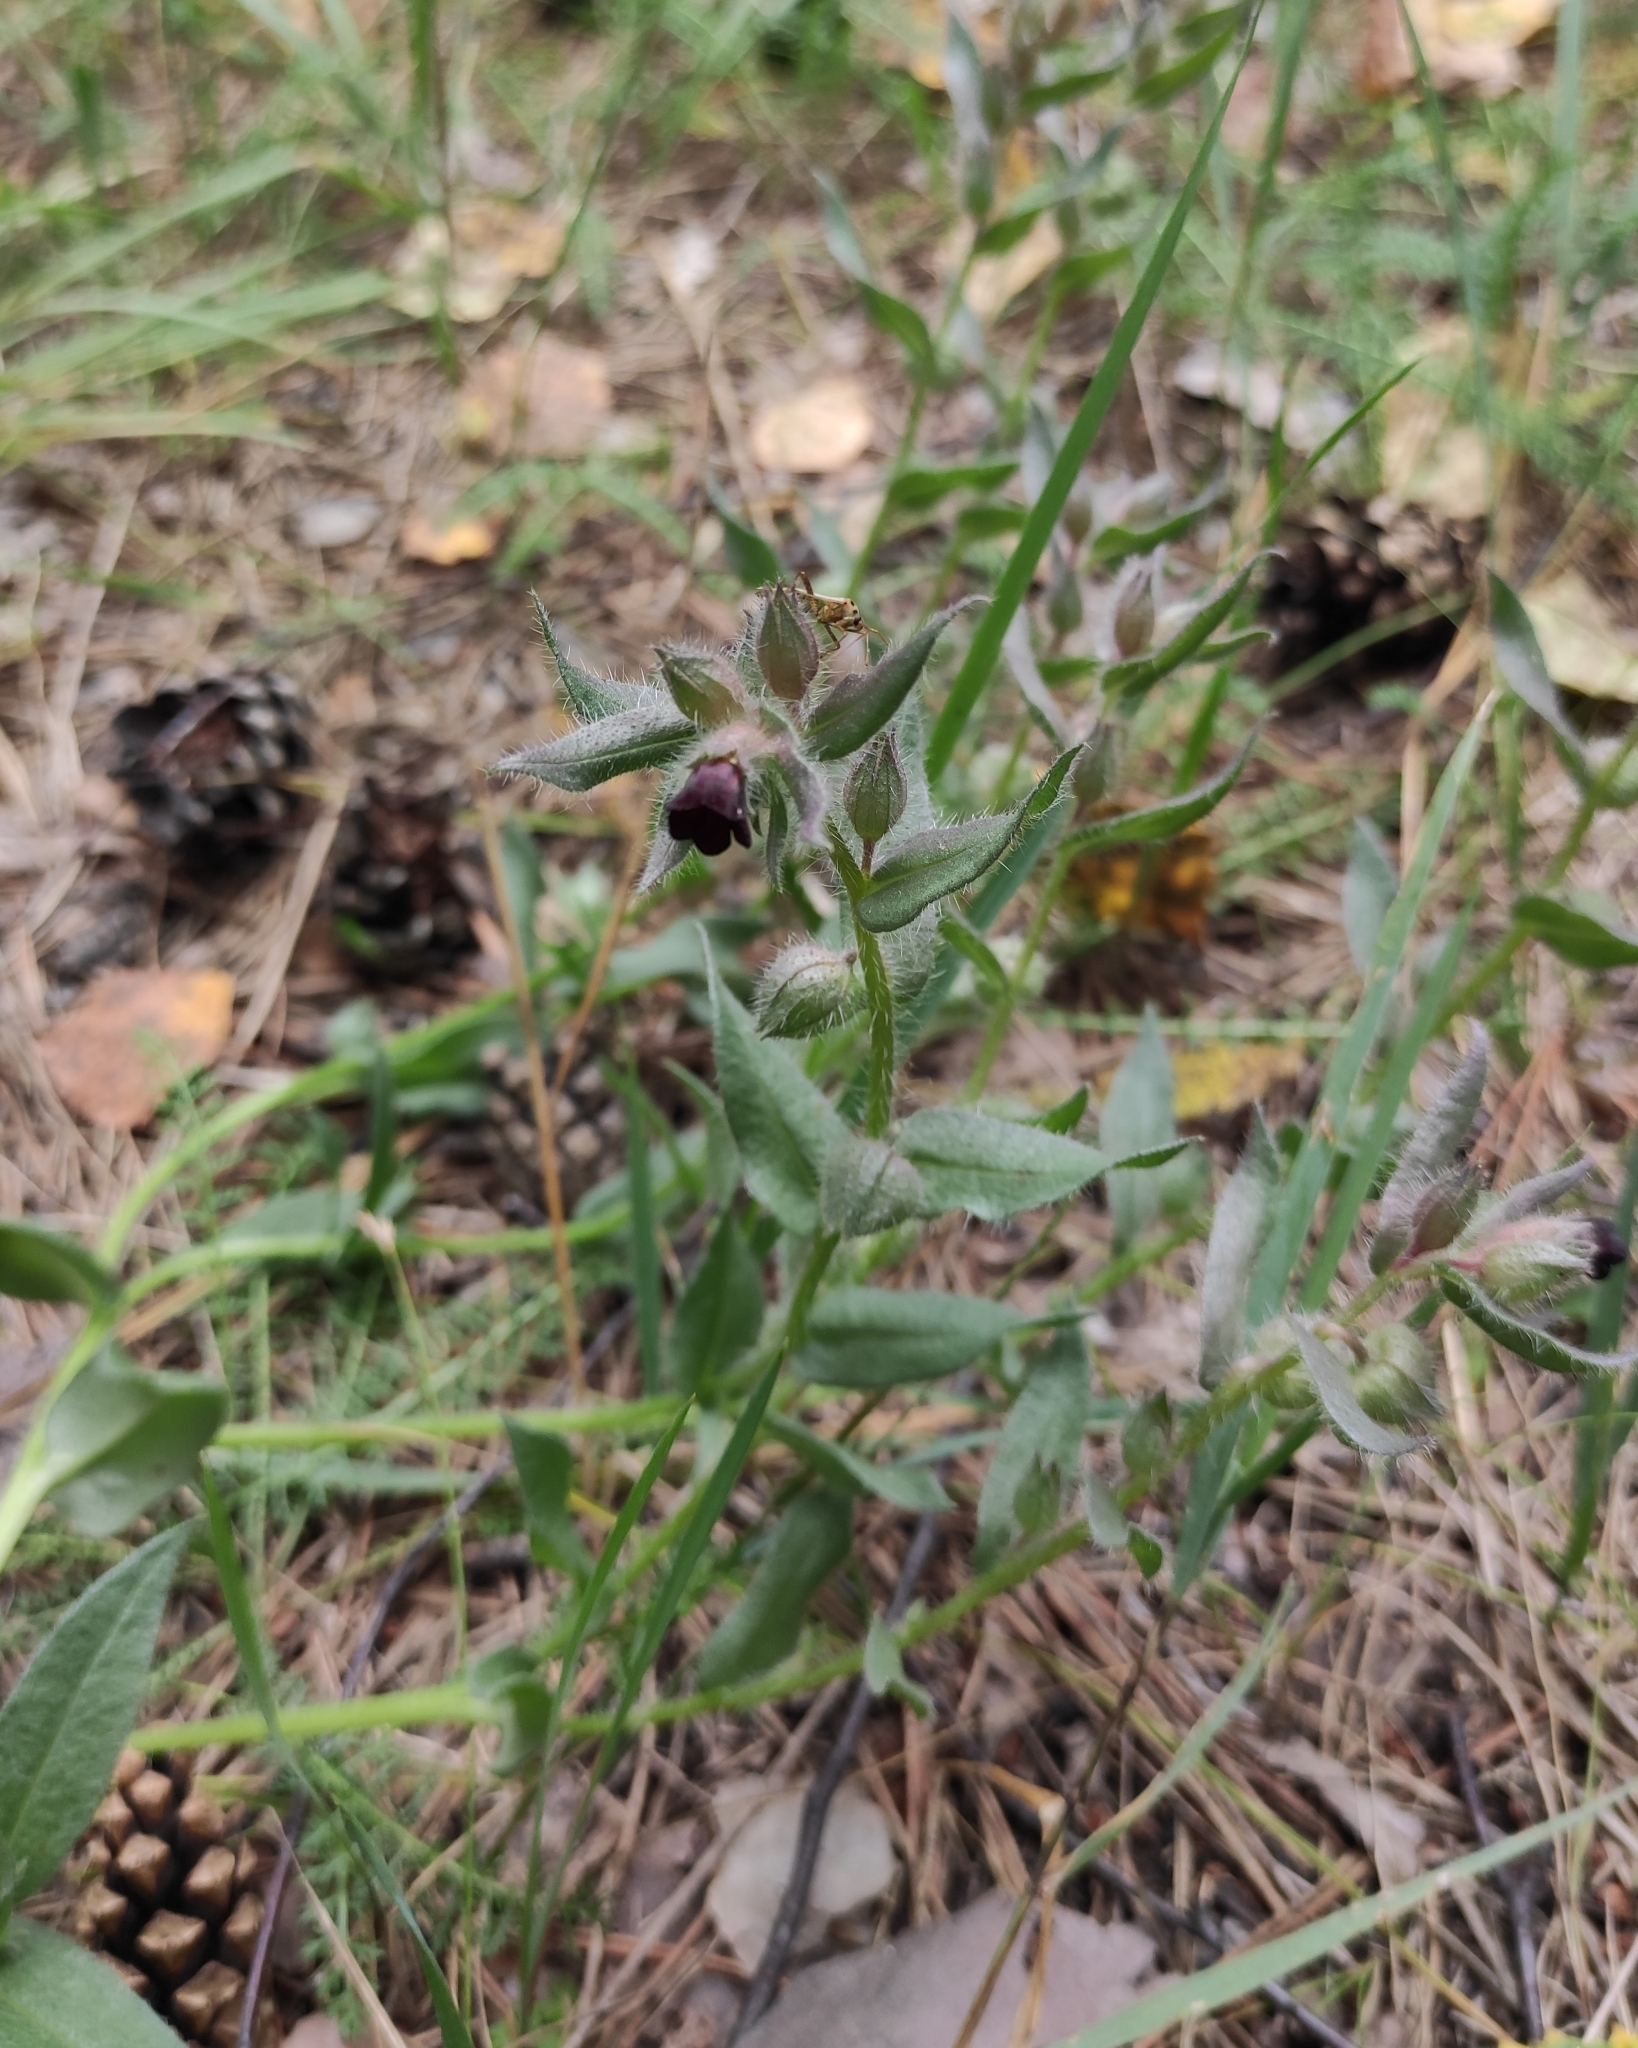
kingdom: Plantae
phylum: Tracheophyta
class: Magnoliopsida
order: Boraginales
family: Boraginaceae
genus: Nonea
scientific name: Nonea pulla
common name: Brown nonea
